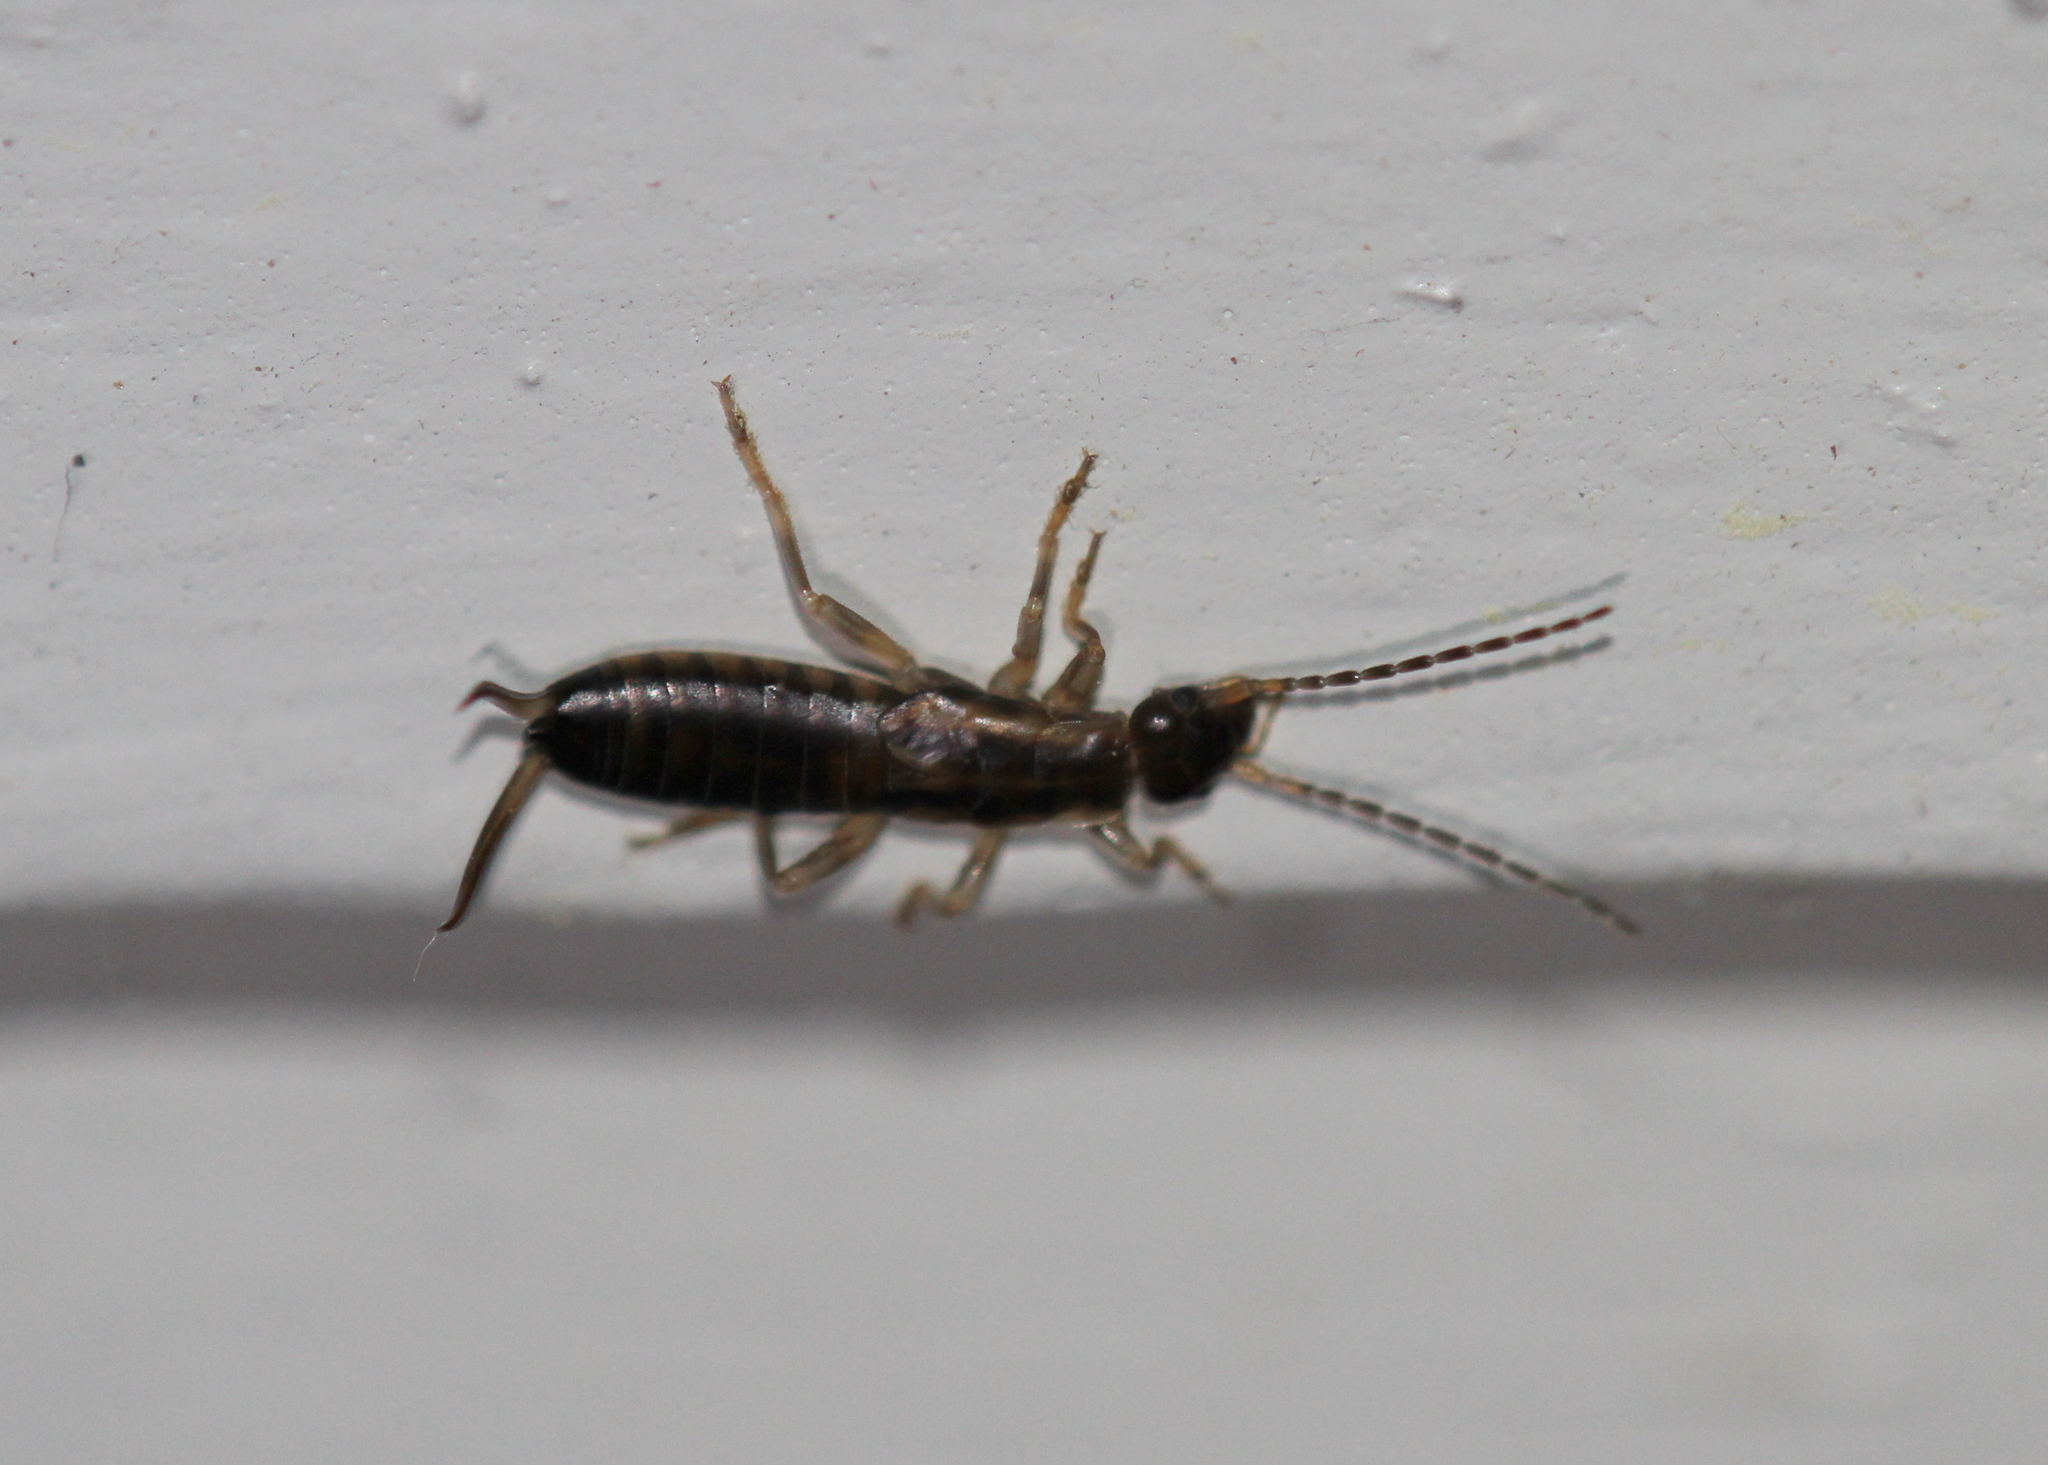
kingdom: Animalia
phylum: Arthropoda
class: Insecta
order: Dermaptera
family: Forficulidae
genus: Forficula
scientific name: Forficula
